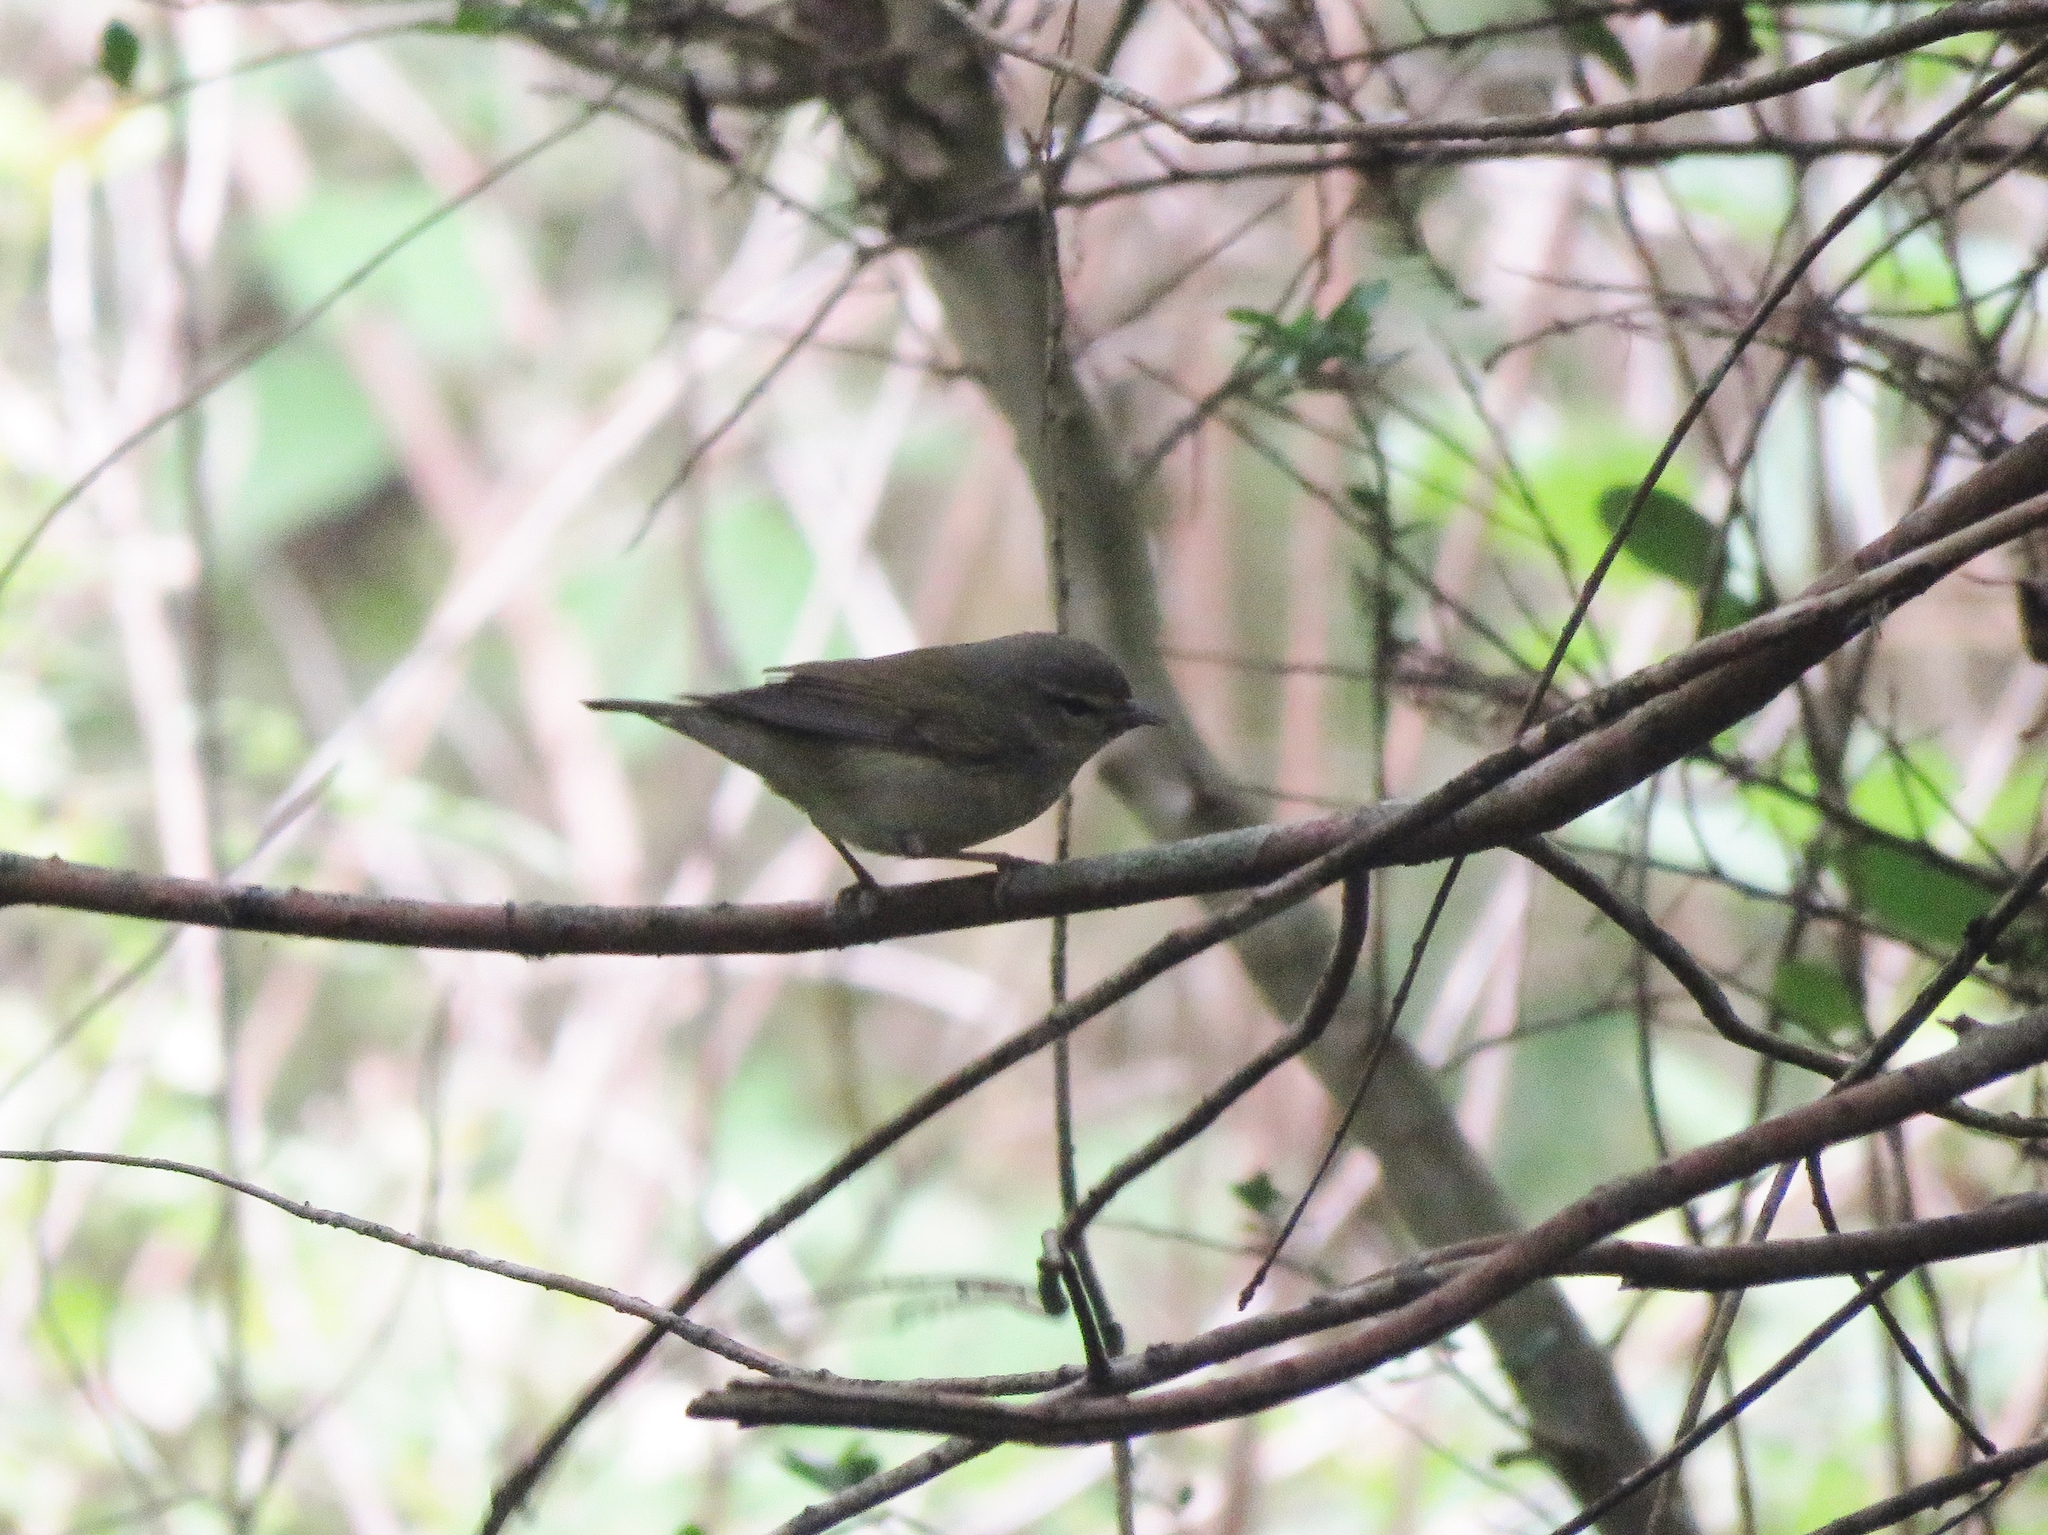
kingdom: Animalia
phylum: Chordata
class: Aves
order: Passeriformes
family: Parulidae
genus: Leiothlypis
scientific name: Leiothlypis peregrina
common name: Tennessee warbler
